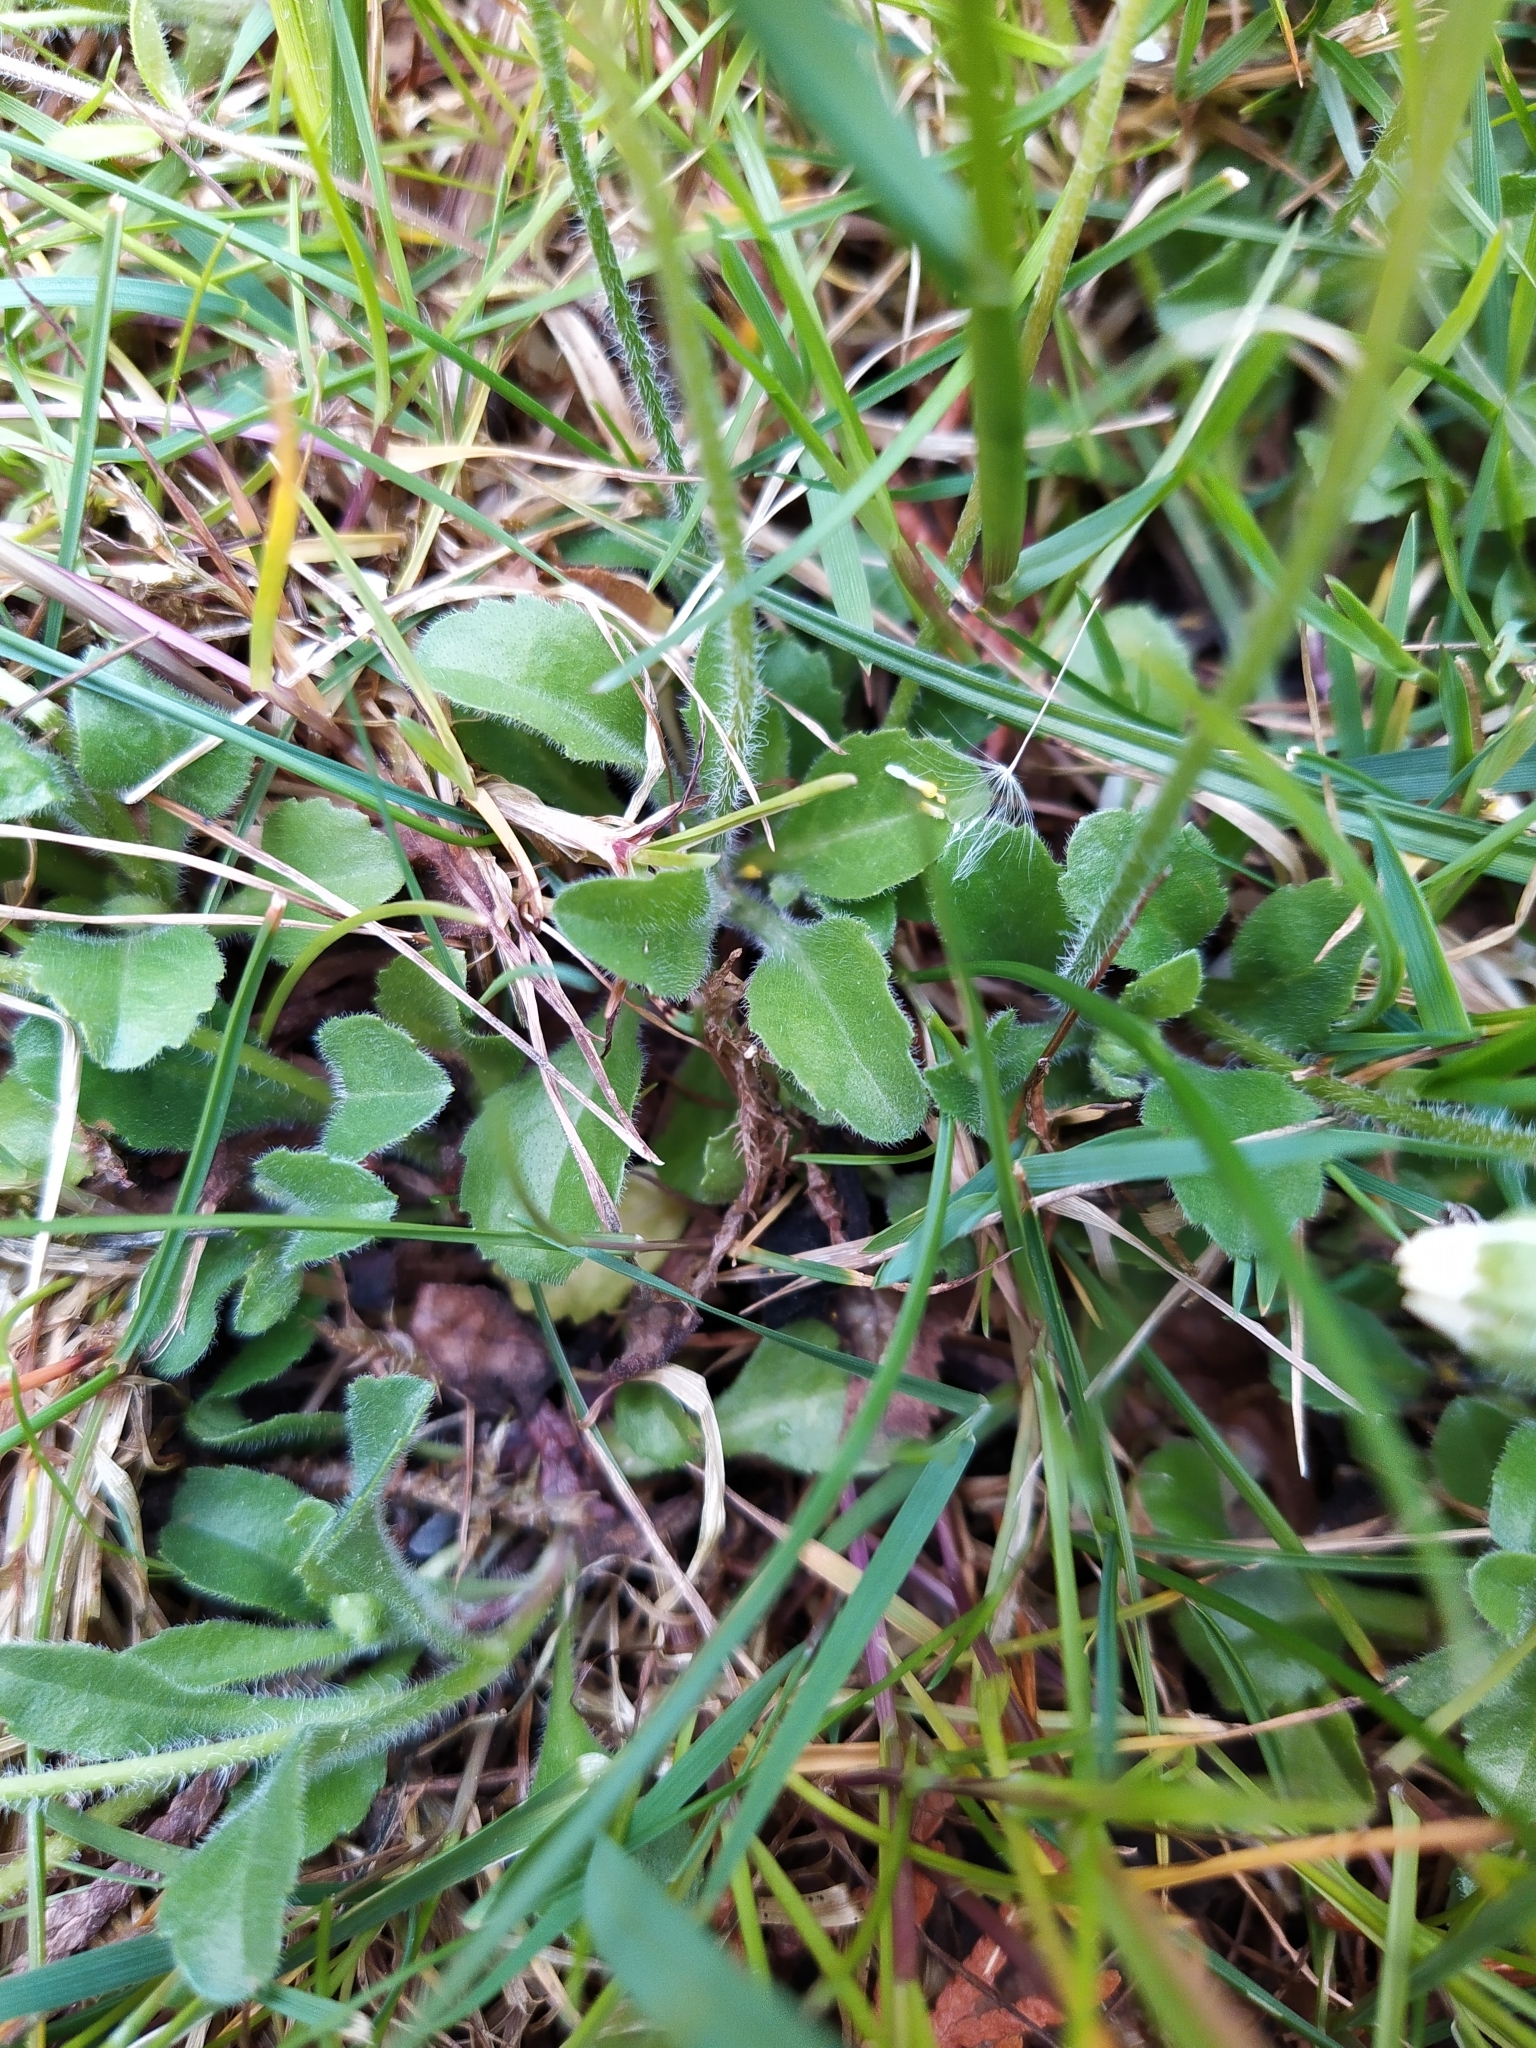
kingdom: Plantae
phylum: Tracheophyta
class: Magnoliopsida
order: Asterales
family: Asteraceae
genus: Bellis
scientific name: Bellis perennis
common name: Lawndaisy
